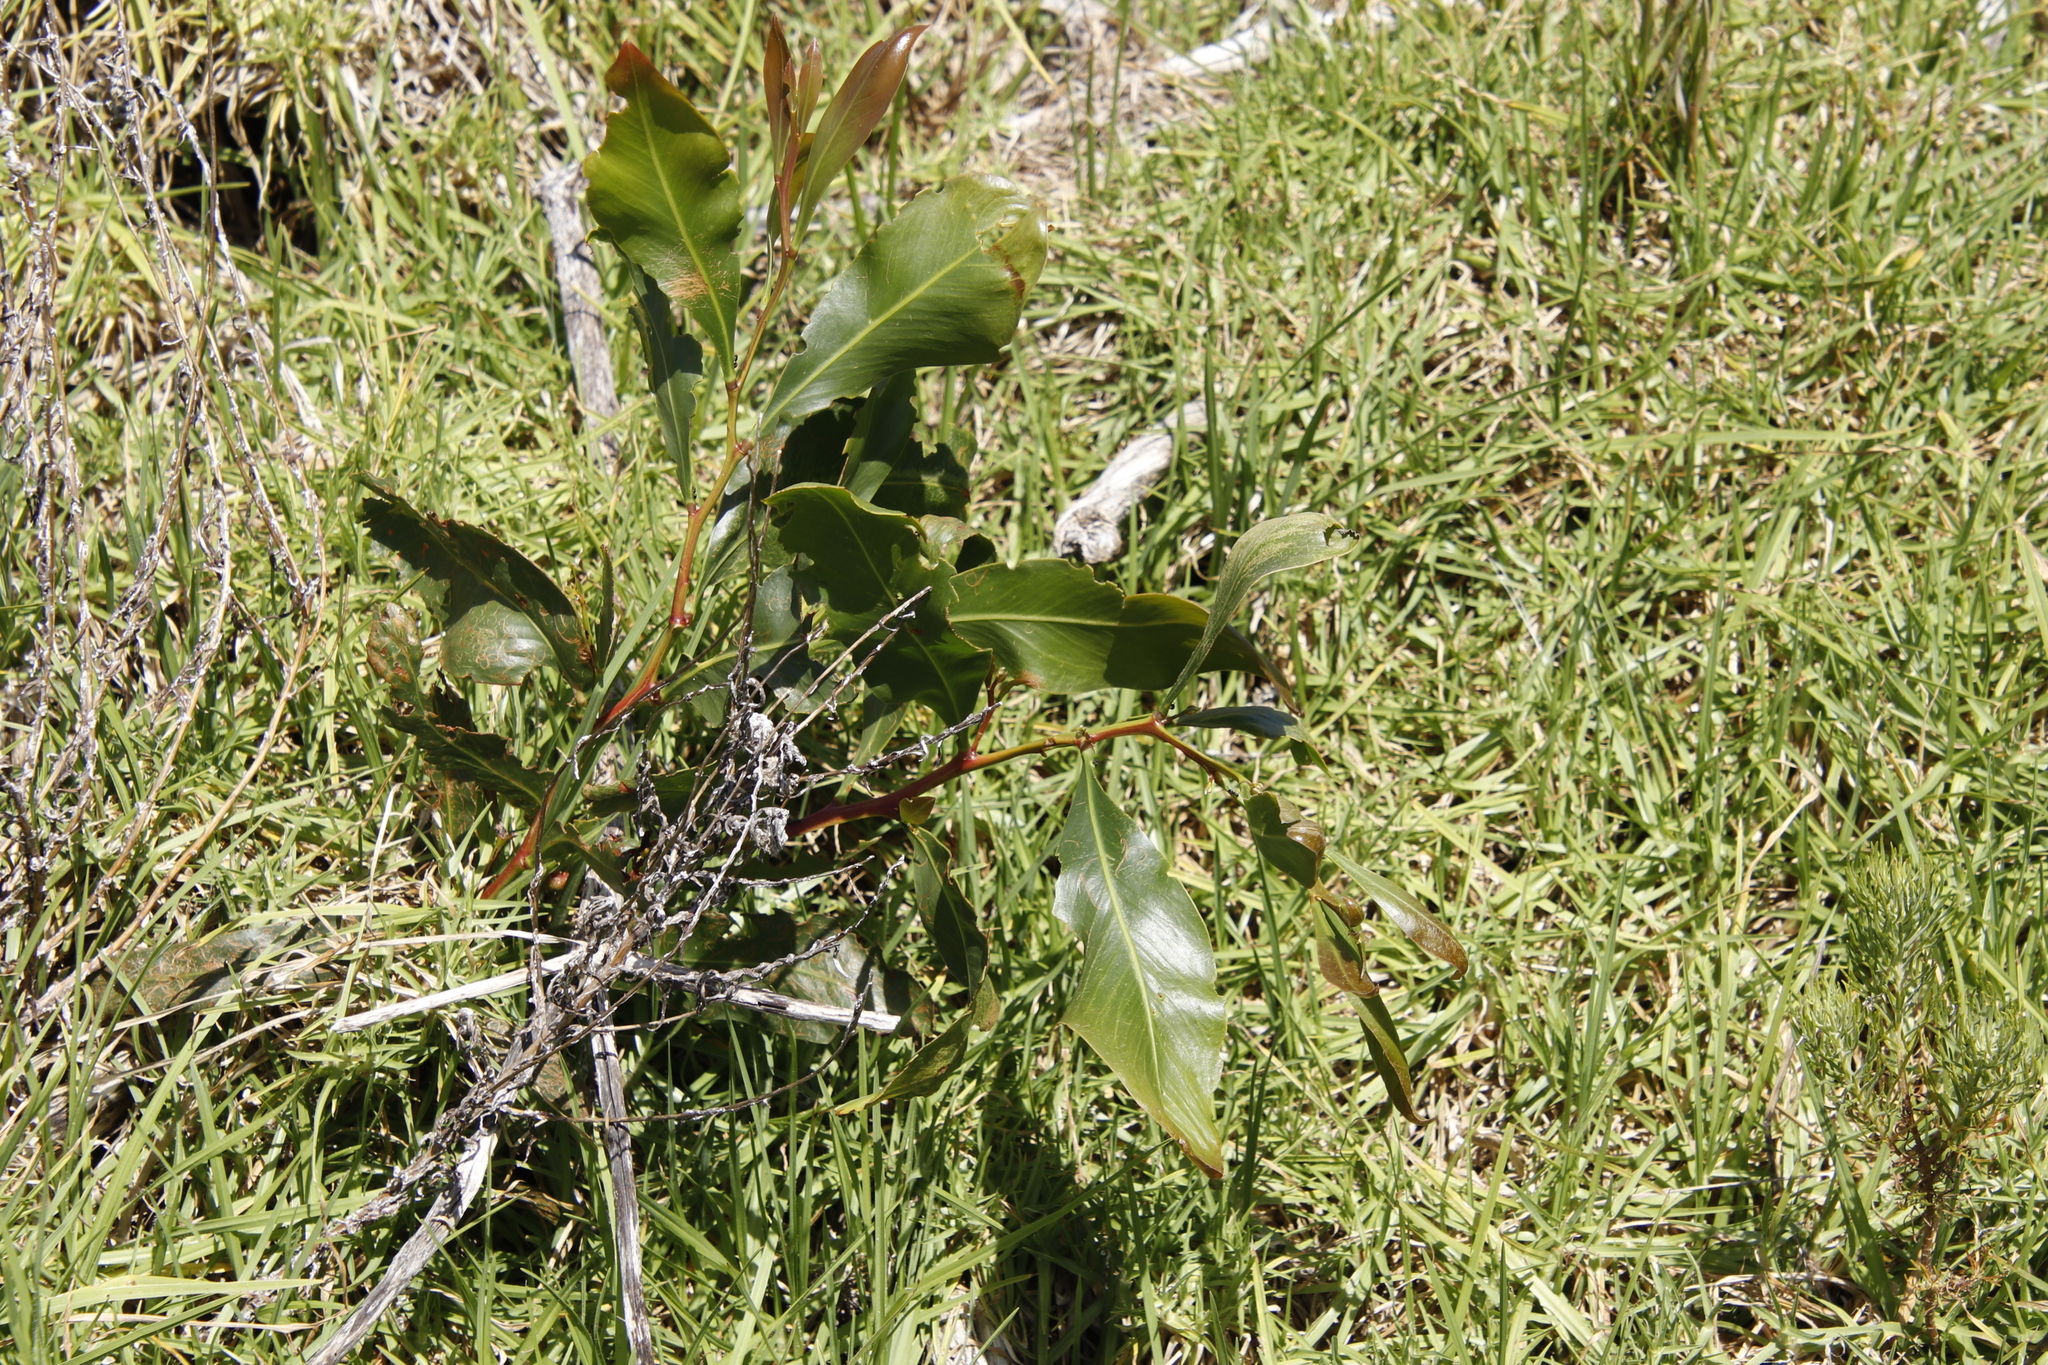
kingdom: Plantae
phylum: Tracheophyta
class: Magnoliopsida
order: Fabales
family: Fabaceae
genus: Acacia
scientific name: Acacia saligna
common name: Orange wattle
